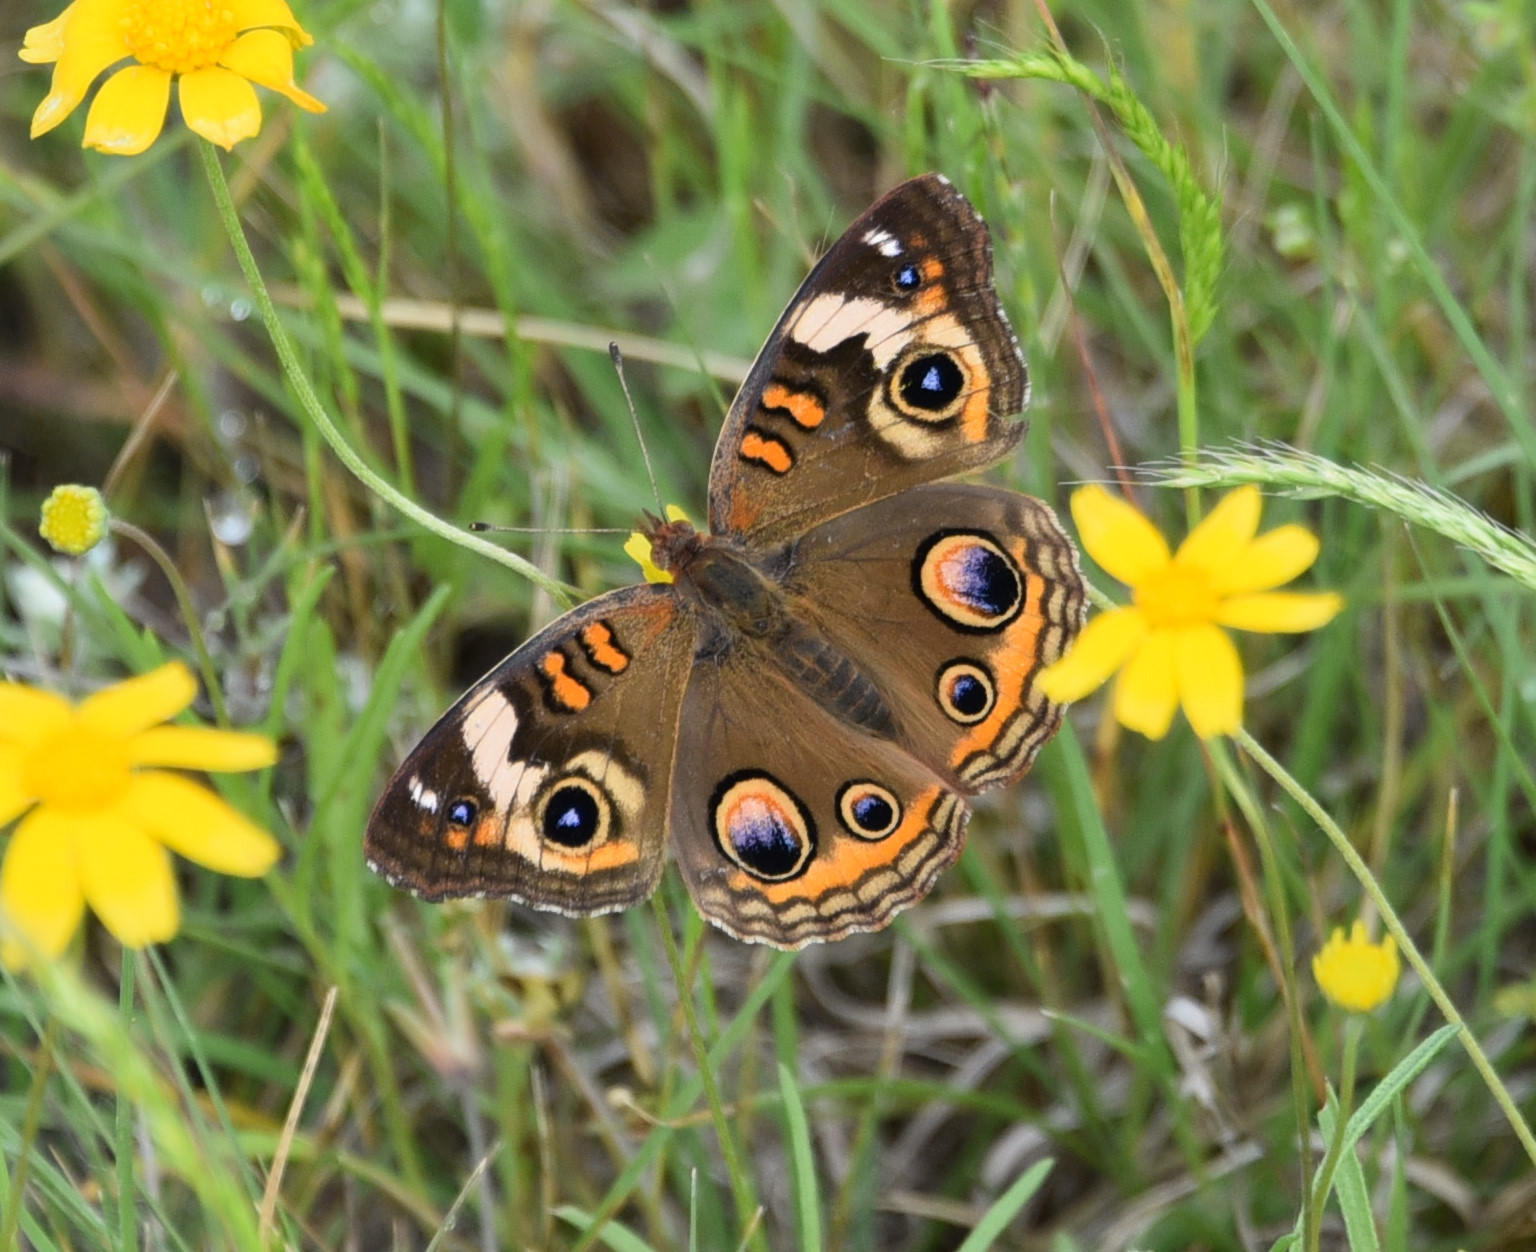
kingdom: Animalia
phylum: Arthropoda
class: Insecta
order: Lepidoptera
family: Nymphalidae
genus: Junonia
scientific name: Junonia coenia
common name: Common buckeye
